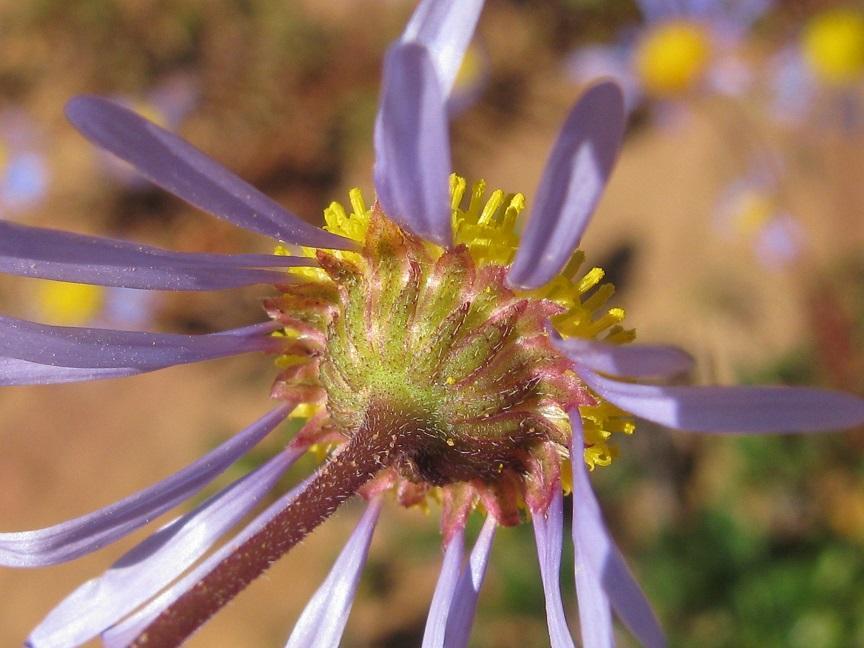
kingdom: Plantae
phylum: Tracheophyta
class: Magnoliopsida
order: Asterales
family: Asteraceae
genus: Felicia
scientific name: Felicia australia
